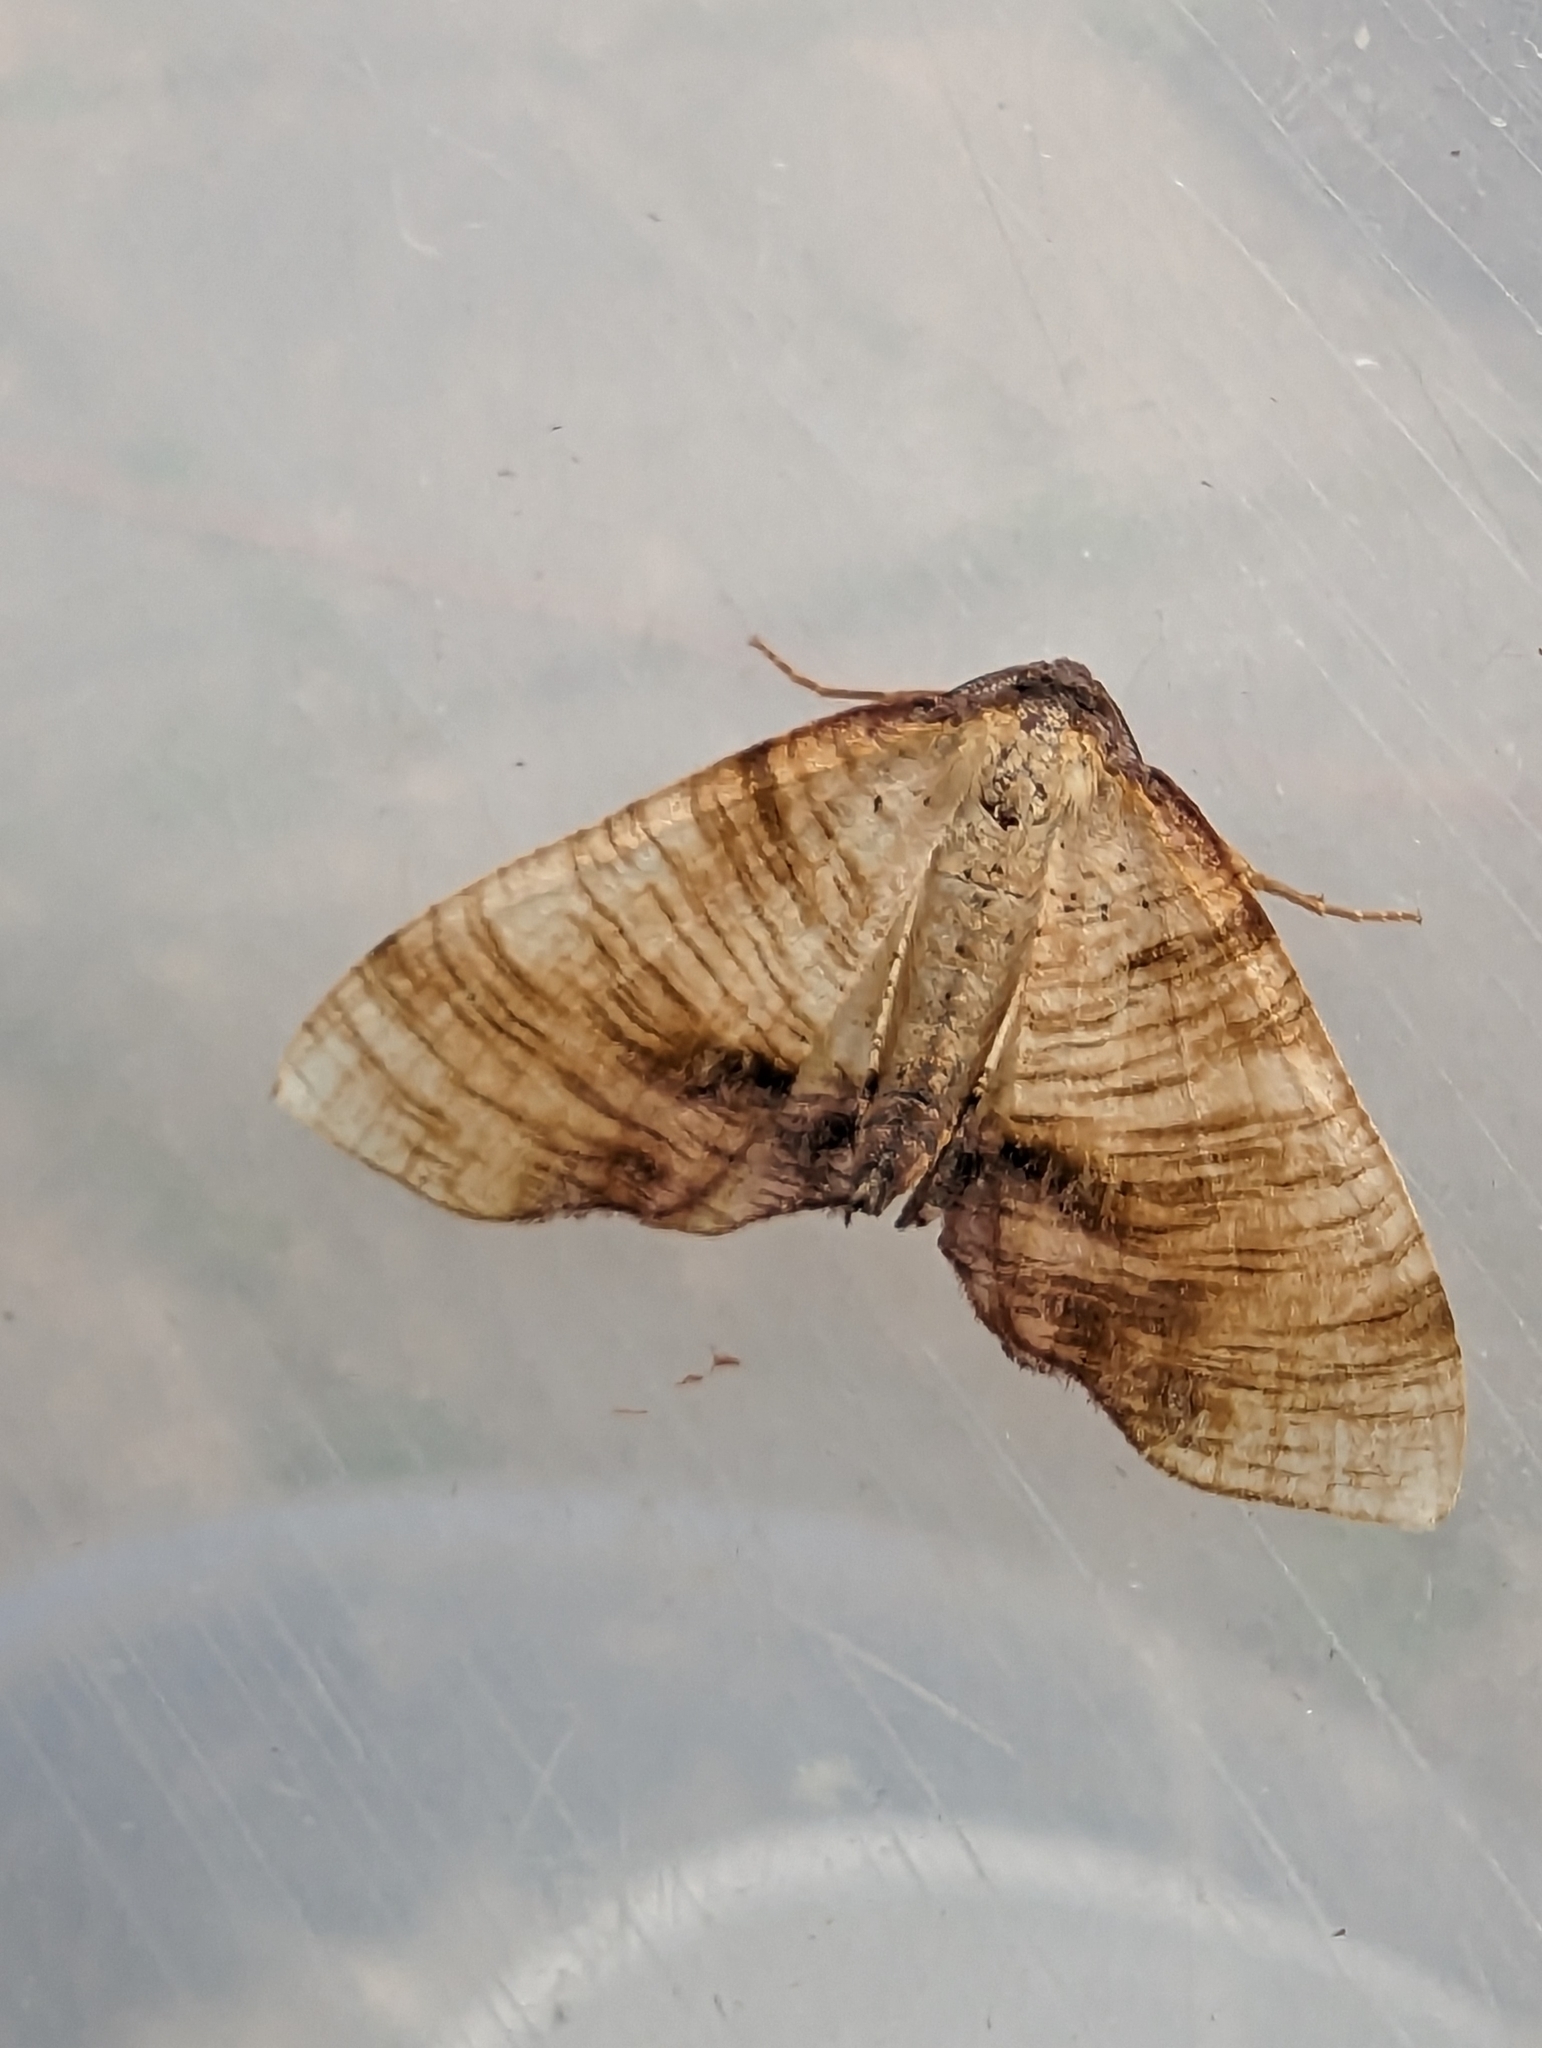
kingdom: Animalia
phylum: Arthropoda
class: Insecta
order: Lepidoptera
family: Geometridae
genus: Plagodis
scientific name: Plagodis dolabraria
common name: Scorched wing
